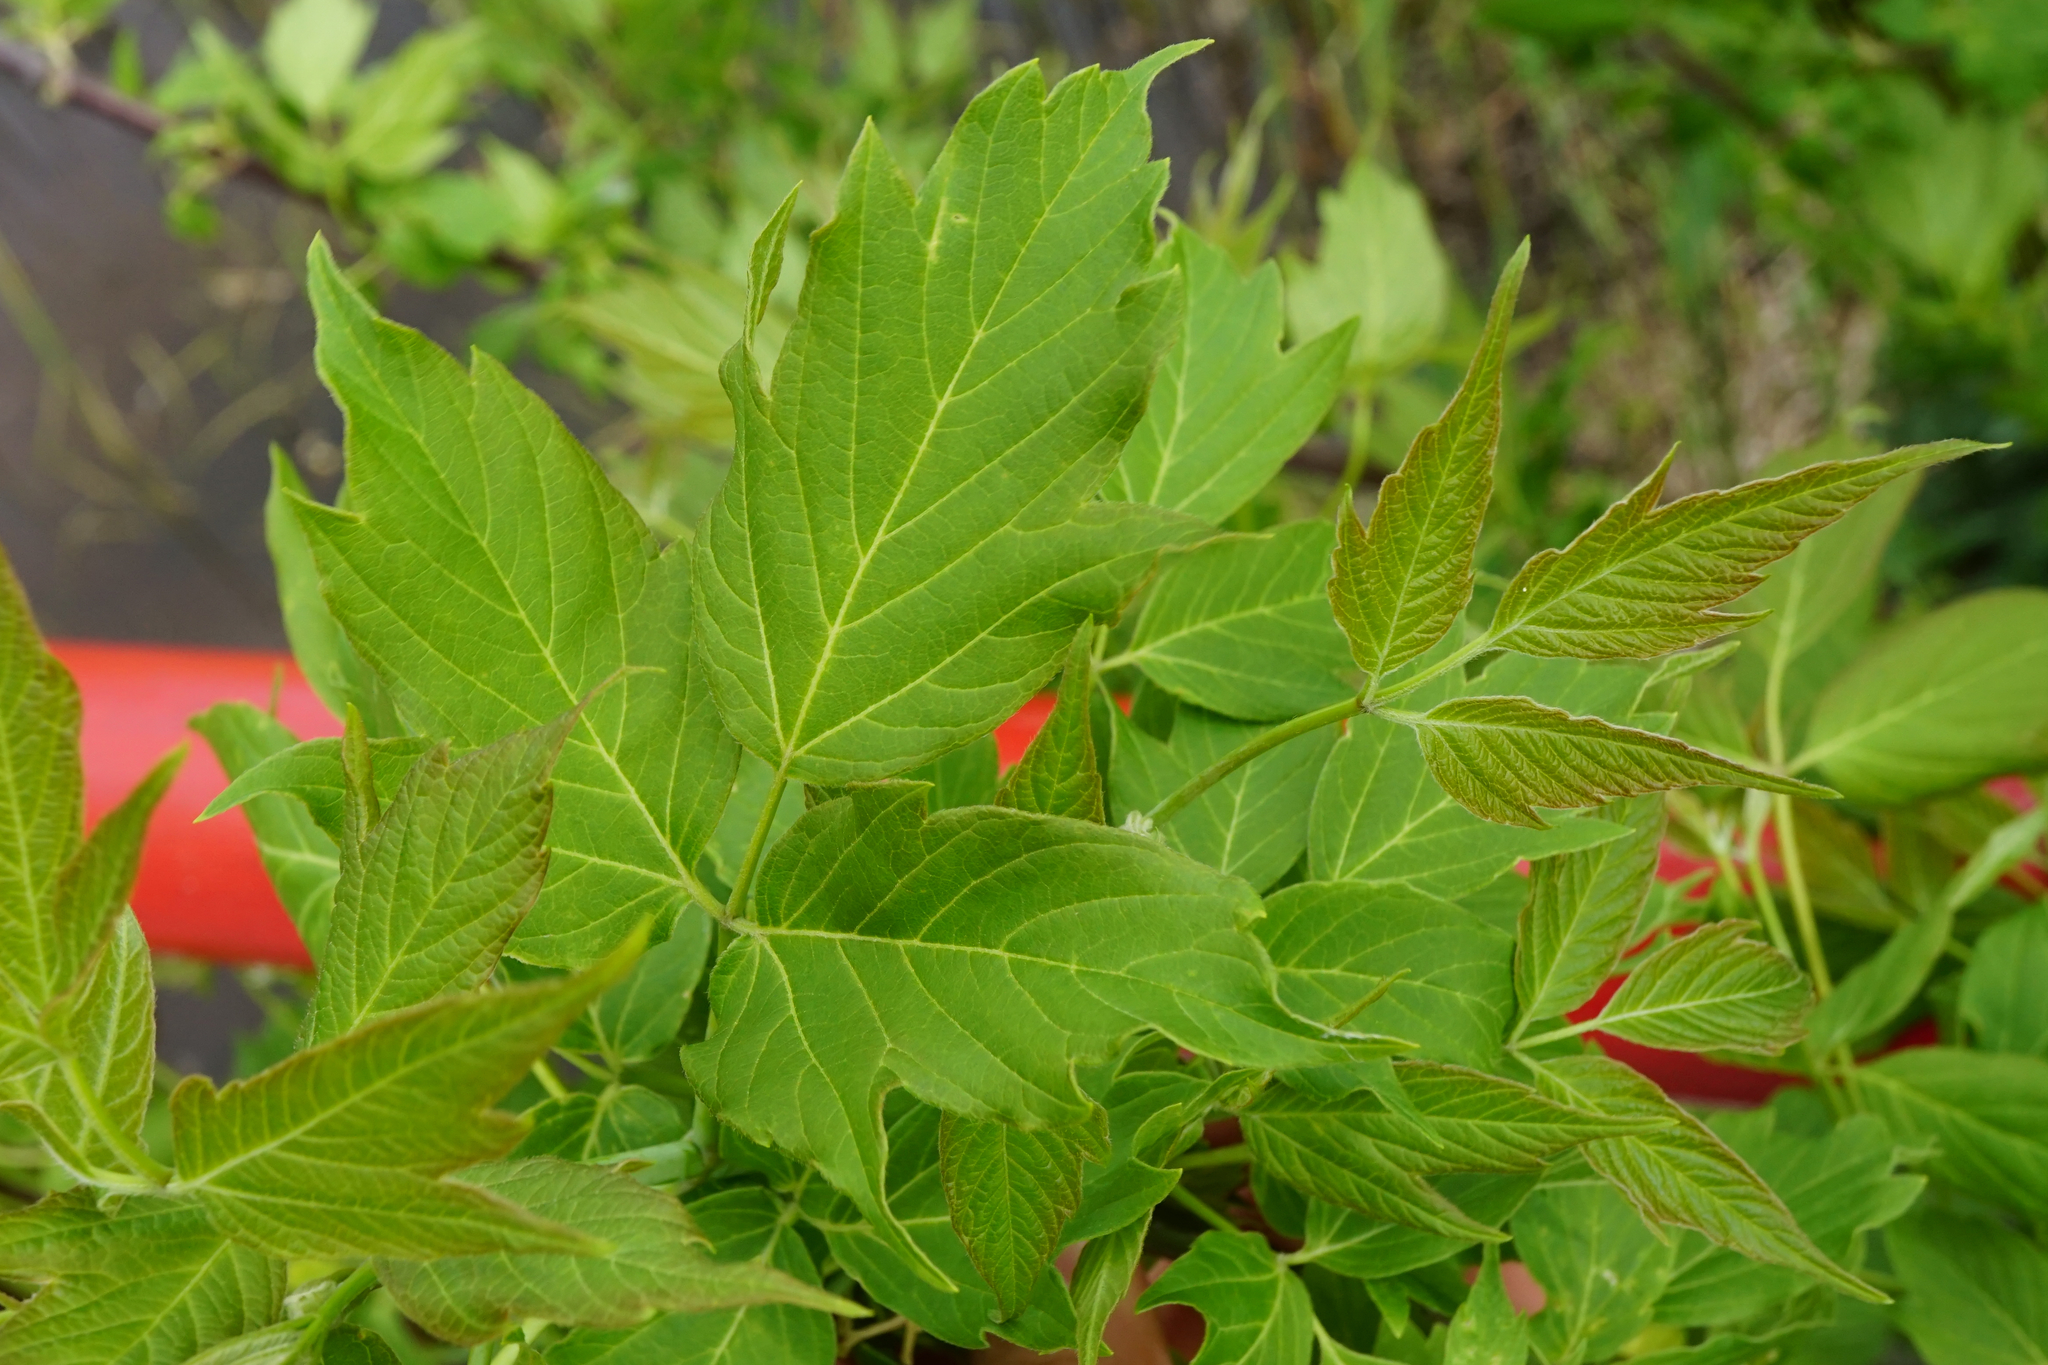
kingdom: Plantae
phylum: Tracheophyta
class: Magnoliopsida
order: Sapindales
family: Sapindaceae
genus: Acer
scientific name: Acer negundo
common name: Ashleaf maple
